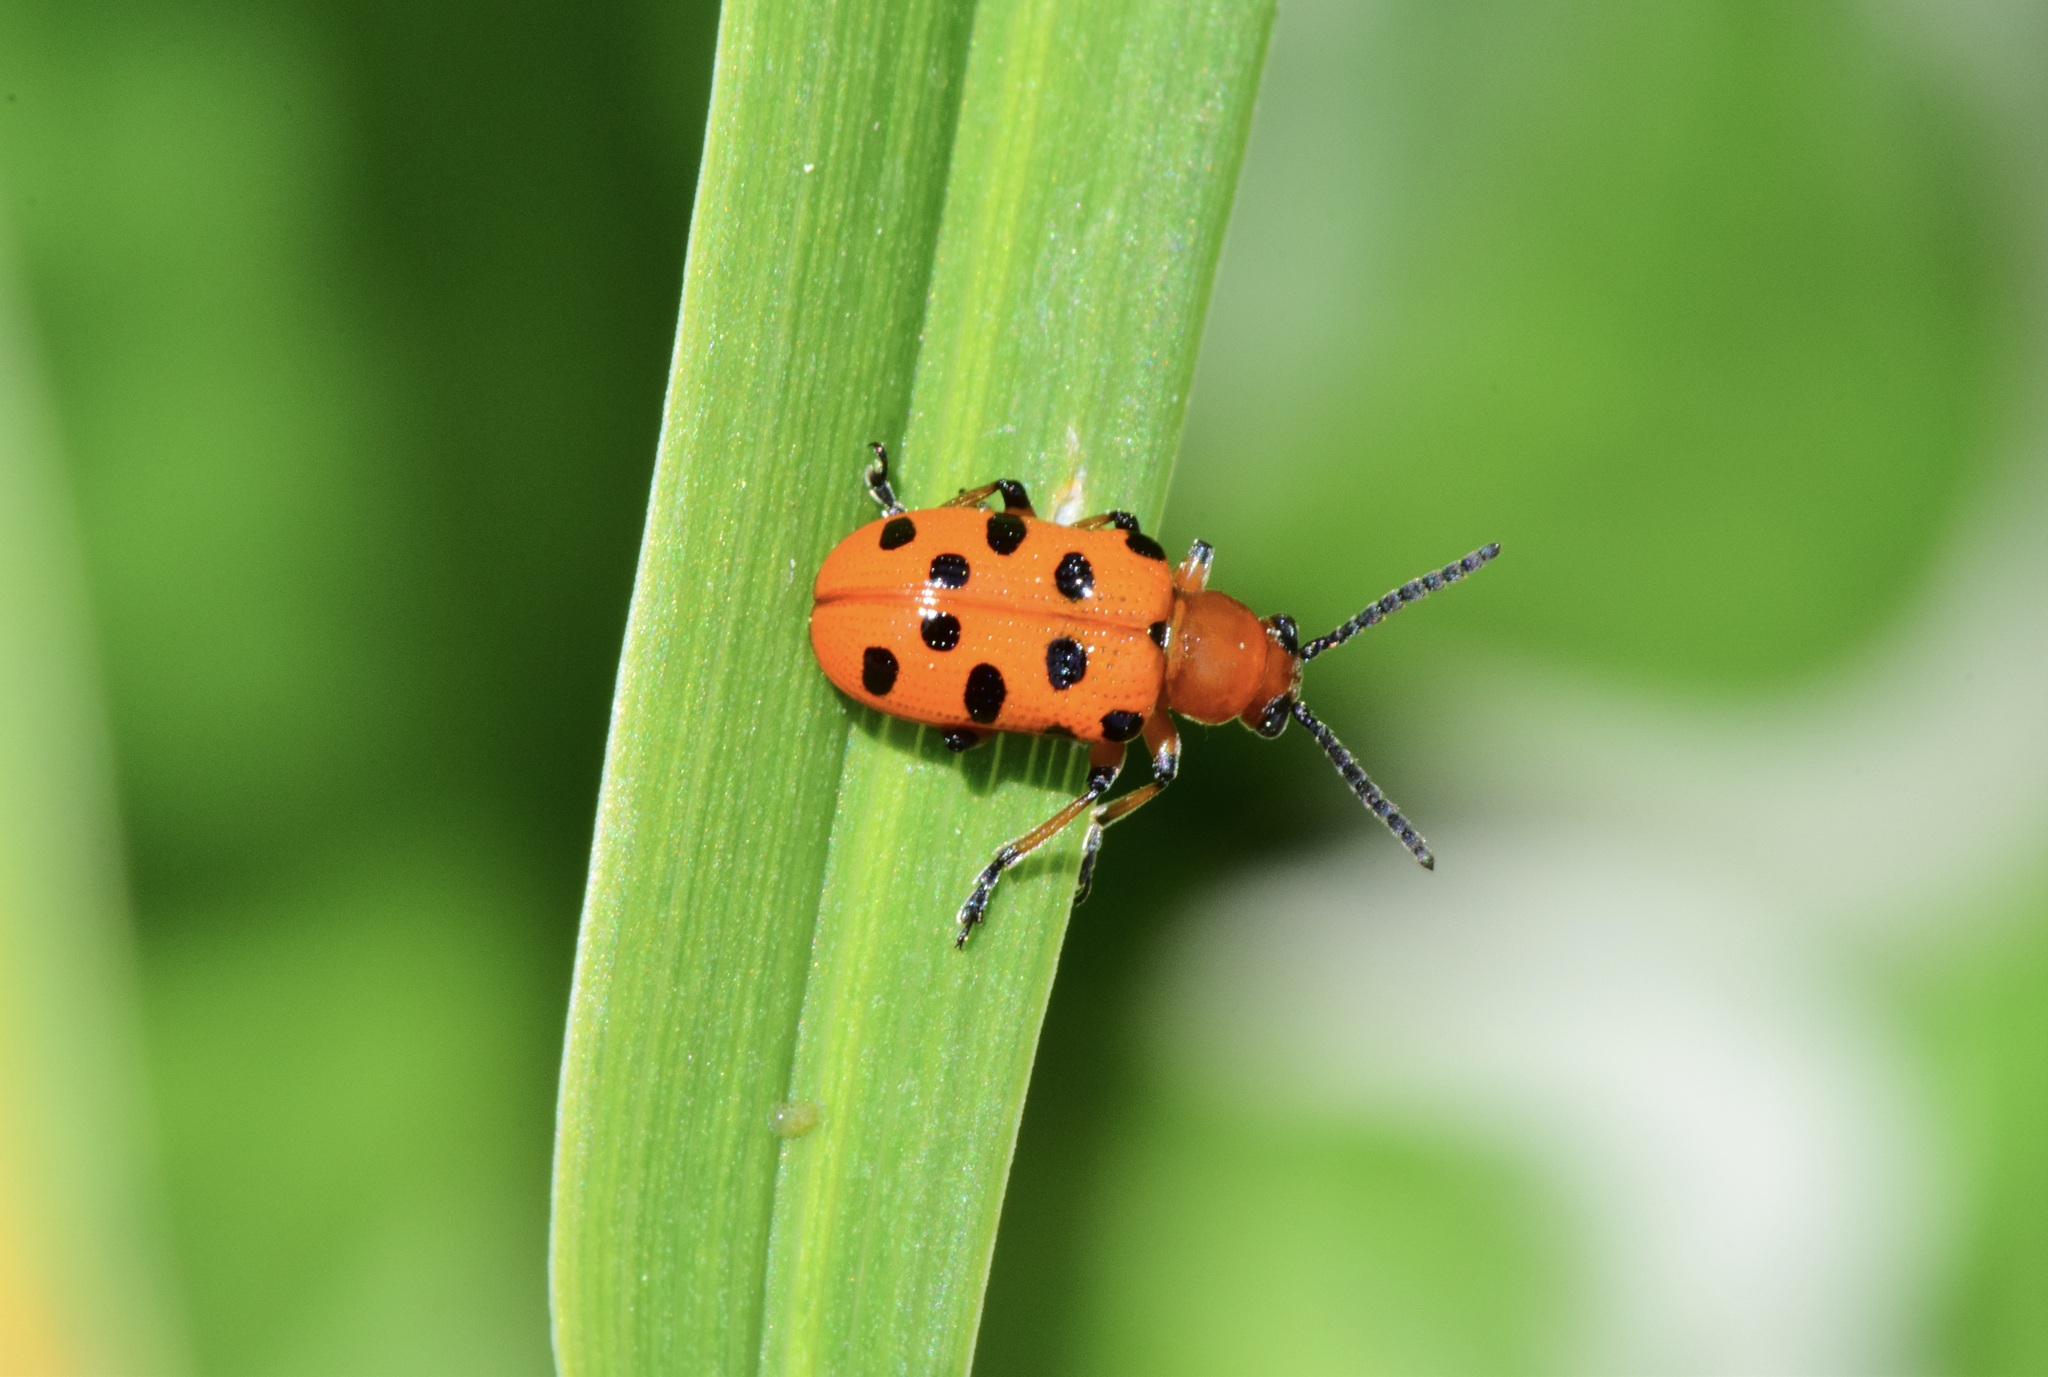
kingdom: Animalia
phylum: Arthropoda
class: Insecta
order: Coleoptera
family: Chrysomelidae
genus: Crioceris
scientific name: Crioceris duodecimpunctata
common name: Twelve-spotted asparagus beetle
